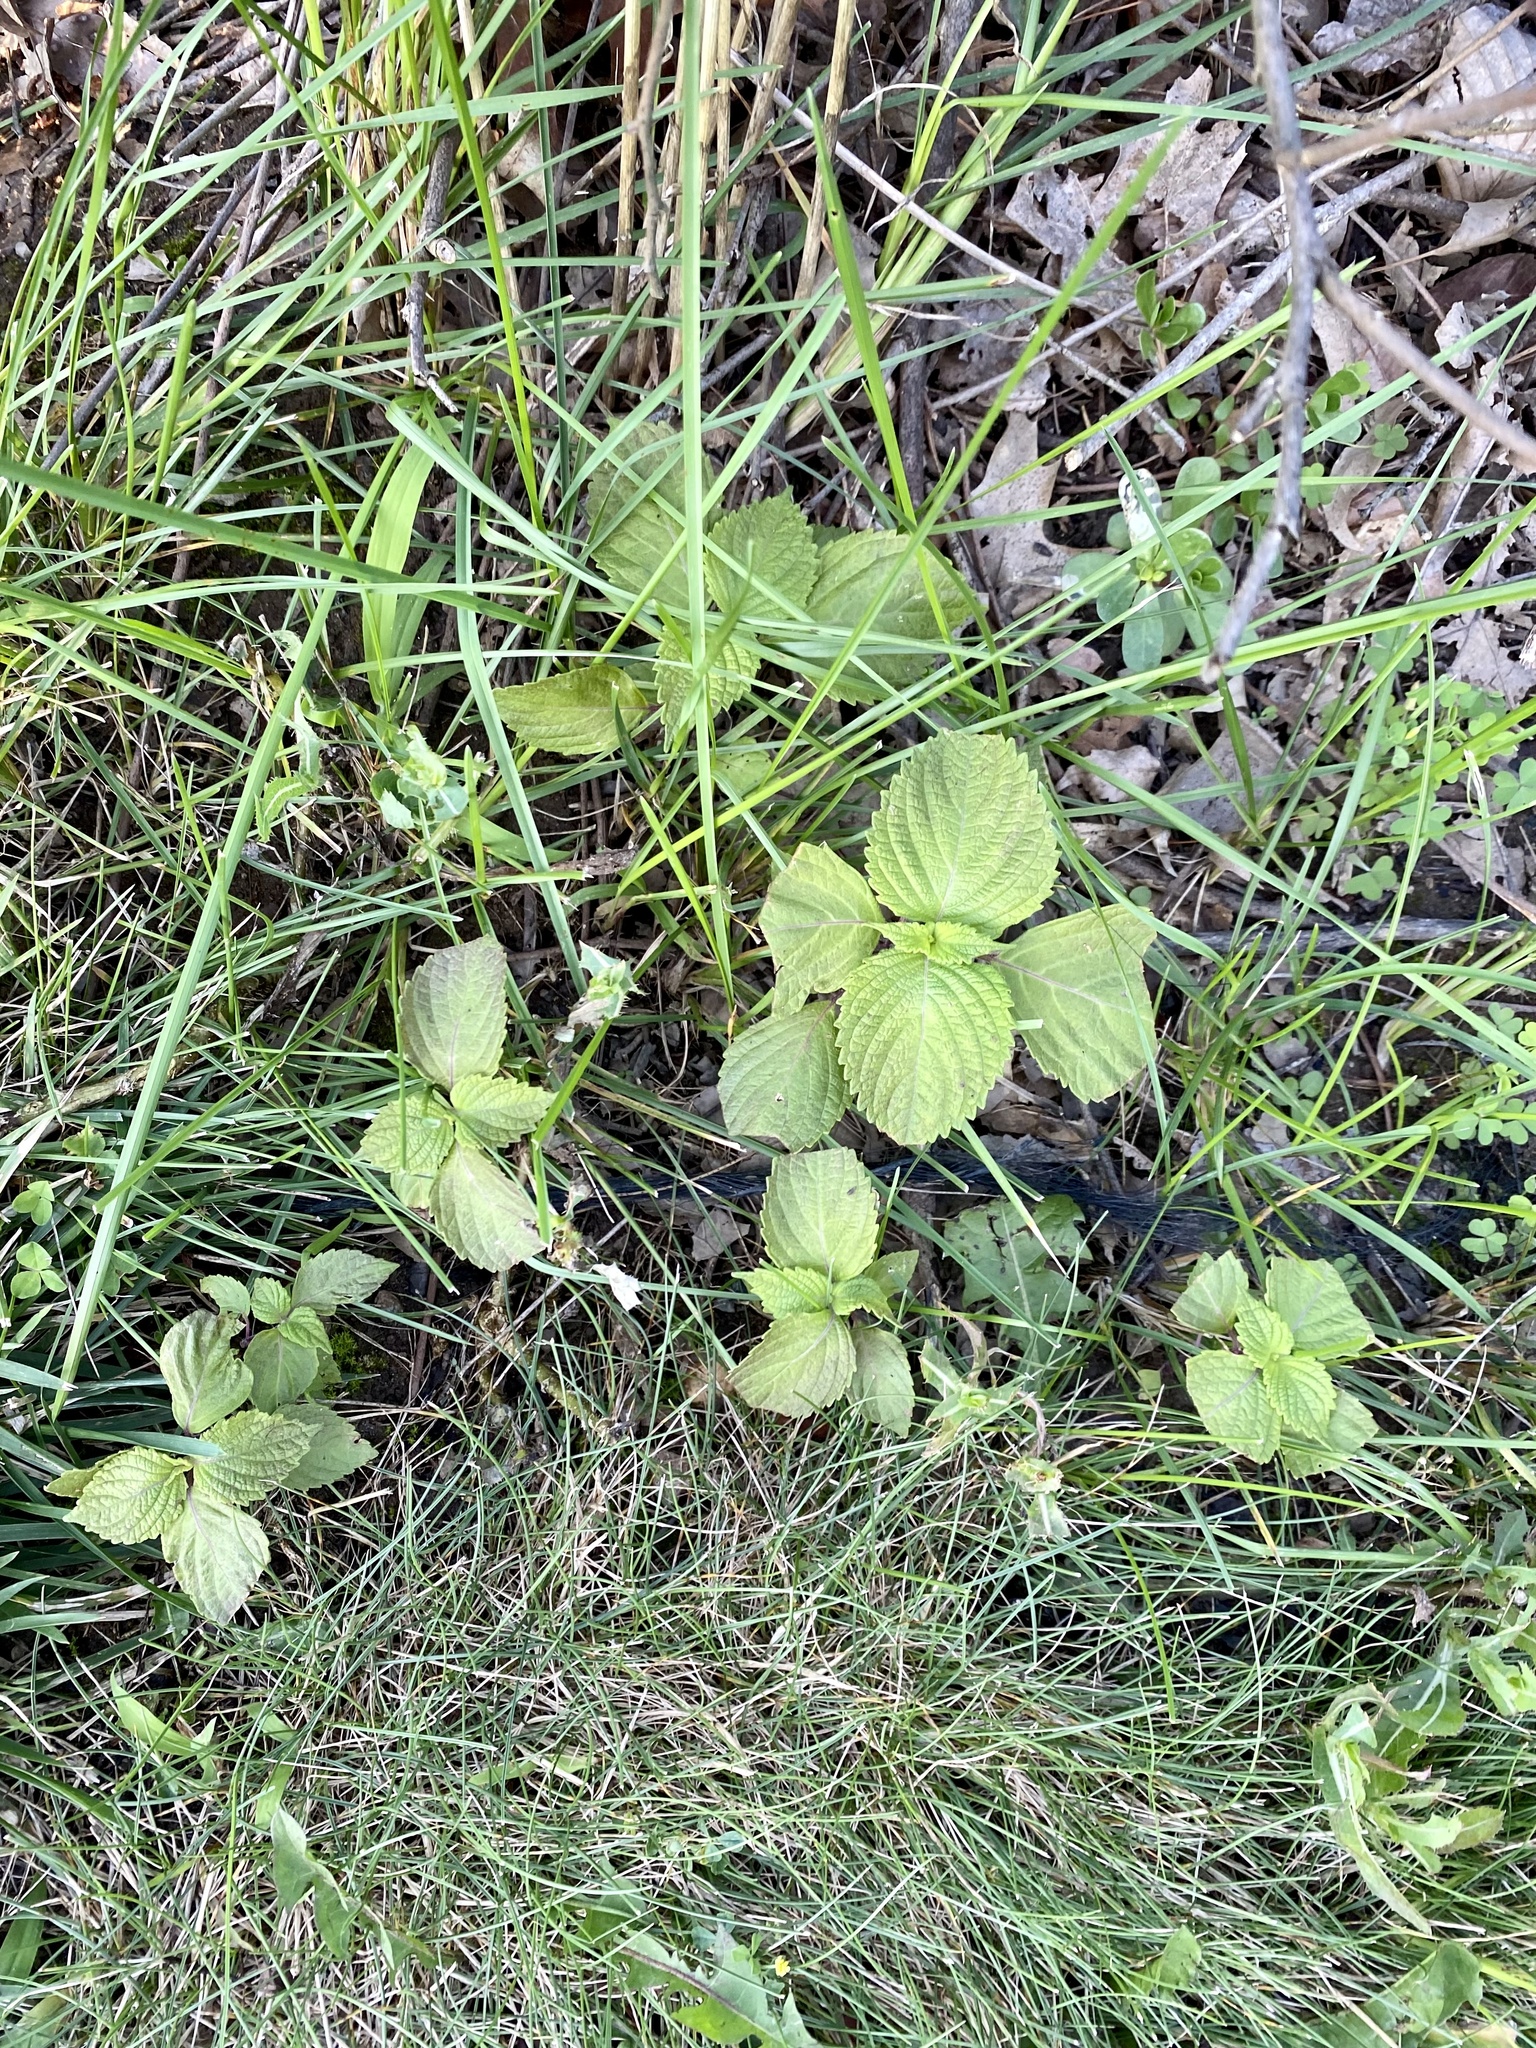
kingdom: Plantae
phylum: Tracheophyta
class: Magnoliopsida
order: Lamiales
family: Lamiaceae
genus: Perilla
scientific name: Perilla frutescens
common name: Perilla
